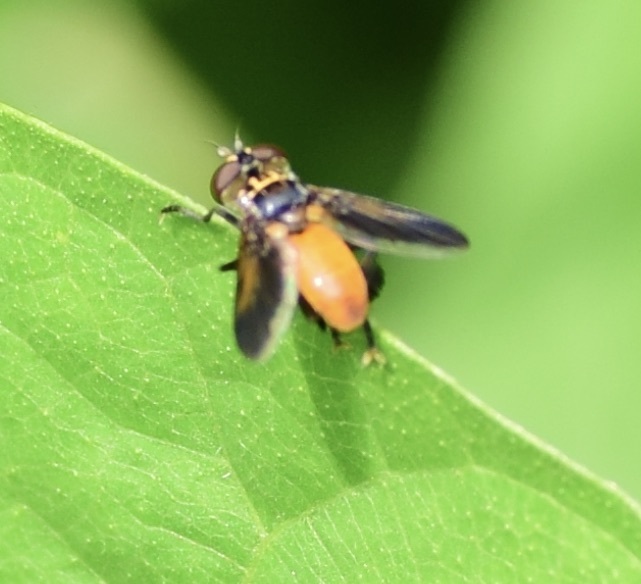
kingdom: Animalia
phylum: Arthropoda
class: Insecta
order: Diptera
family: Tachinidae
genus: Trichopoda
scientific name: Trichopoda pennipes
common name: Tachinid fly
